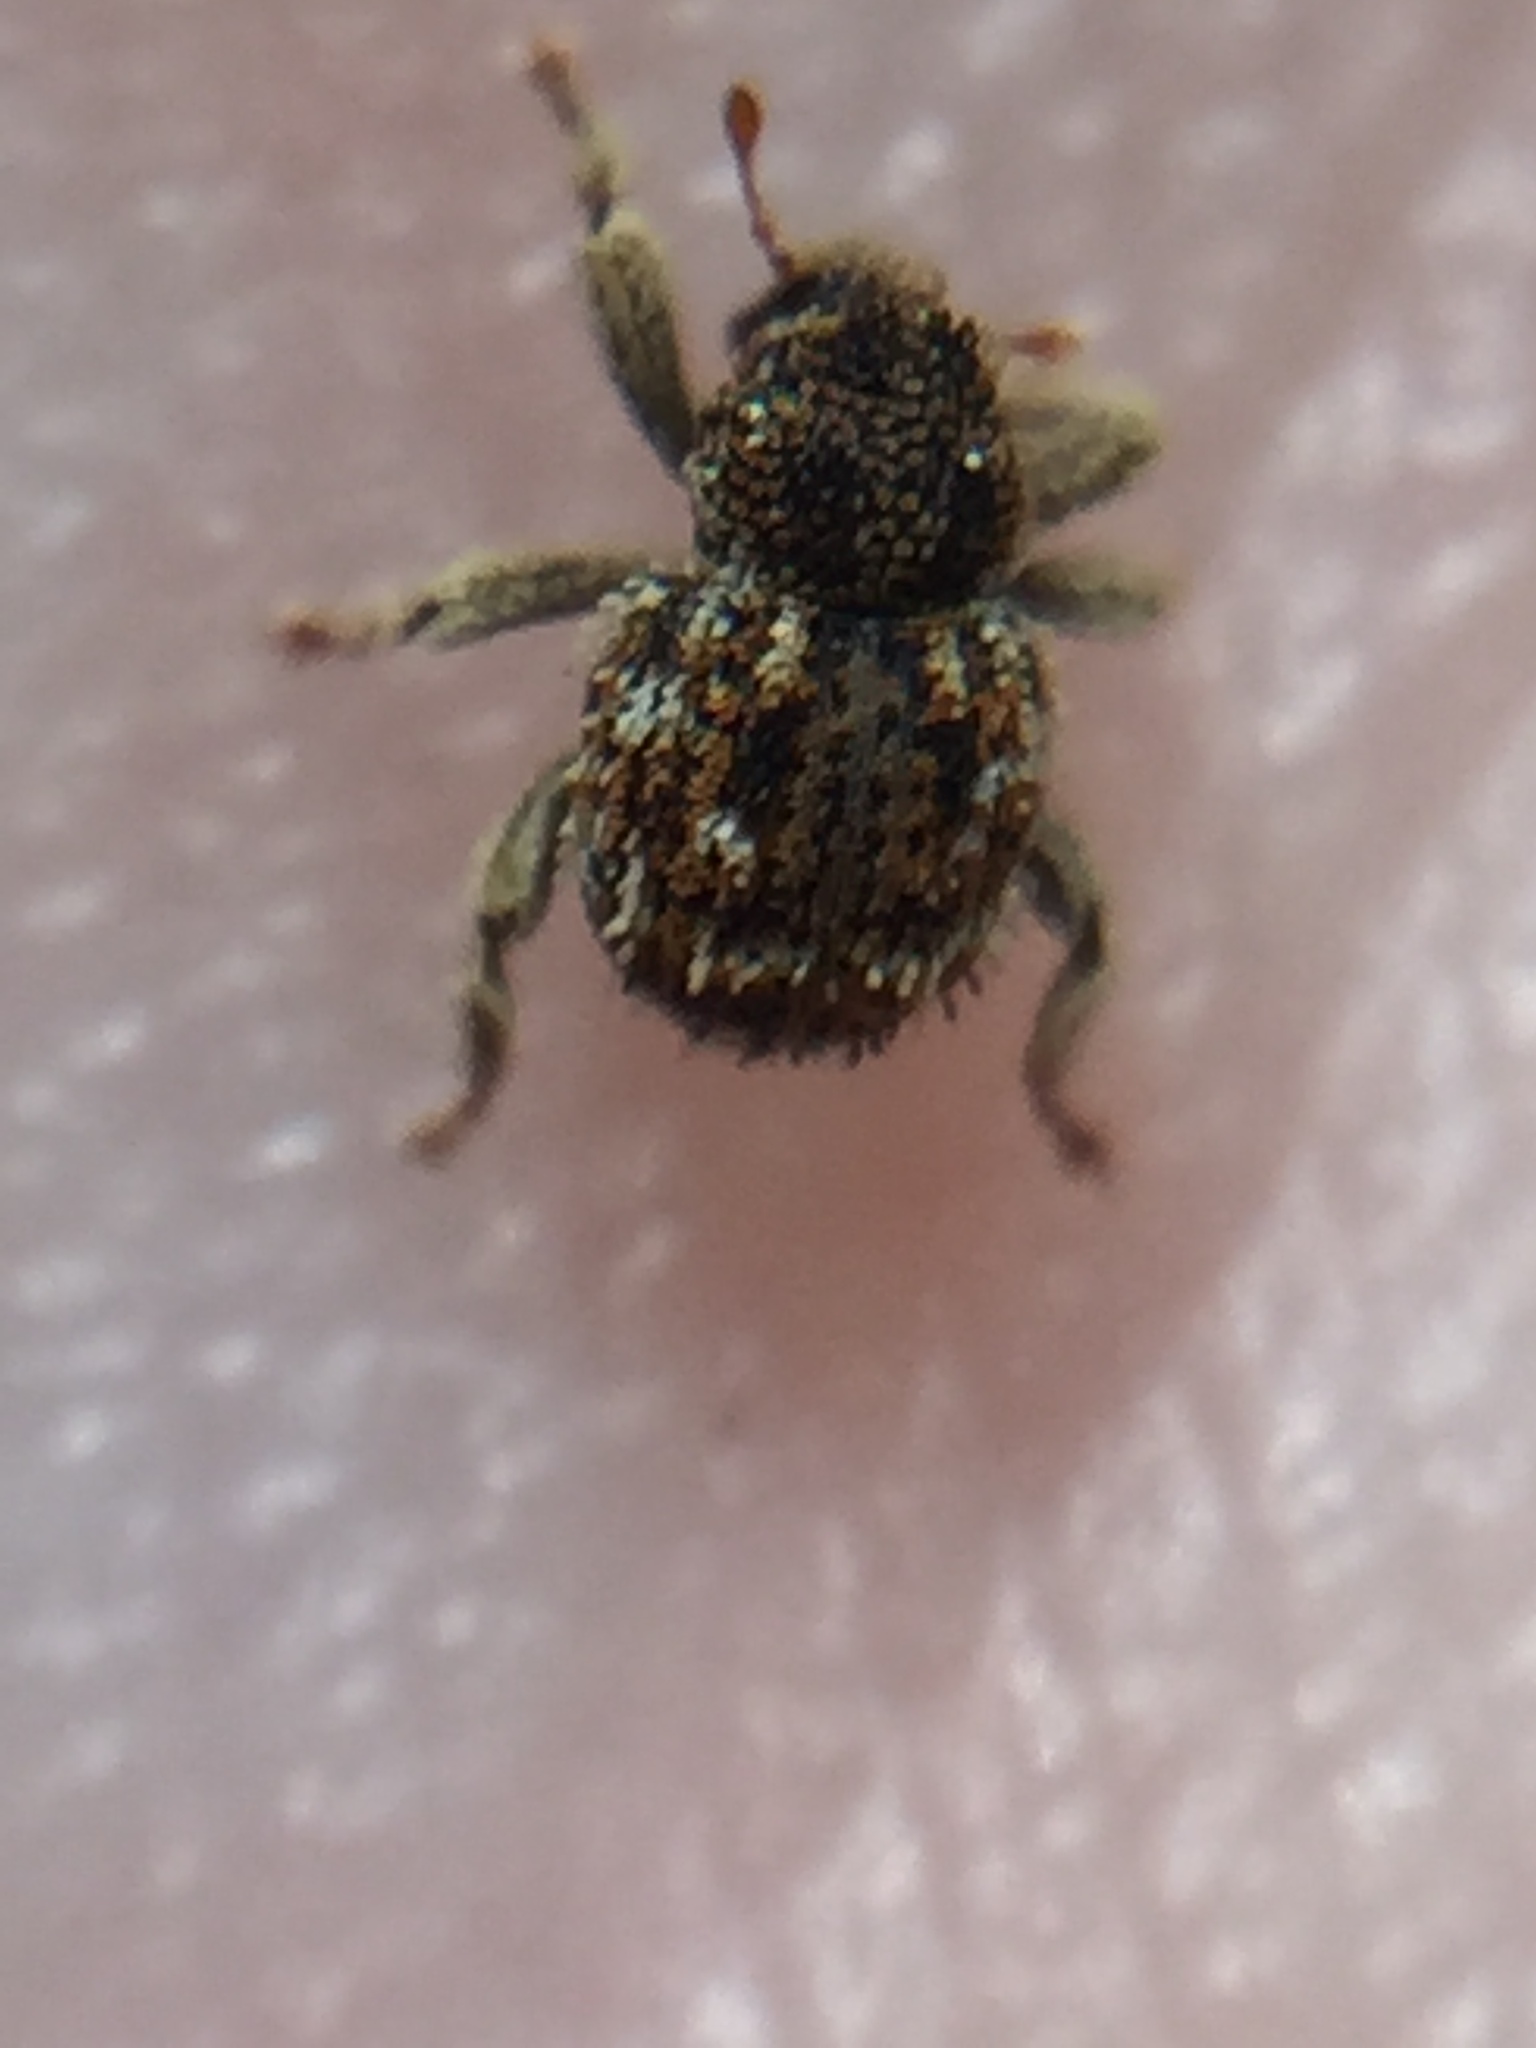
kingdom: Animalia
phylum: Arthropoda
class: Insecta
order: Coleoptera
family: Curculionidae
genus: Andracalles
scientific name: Andracalles horridus
